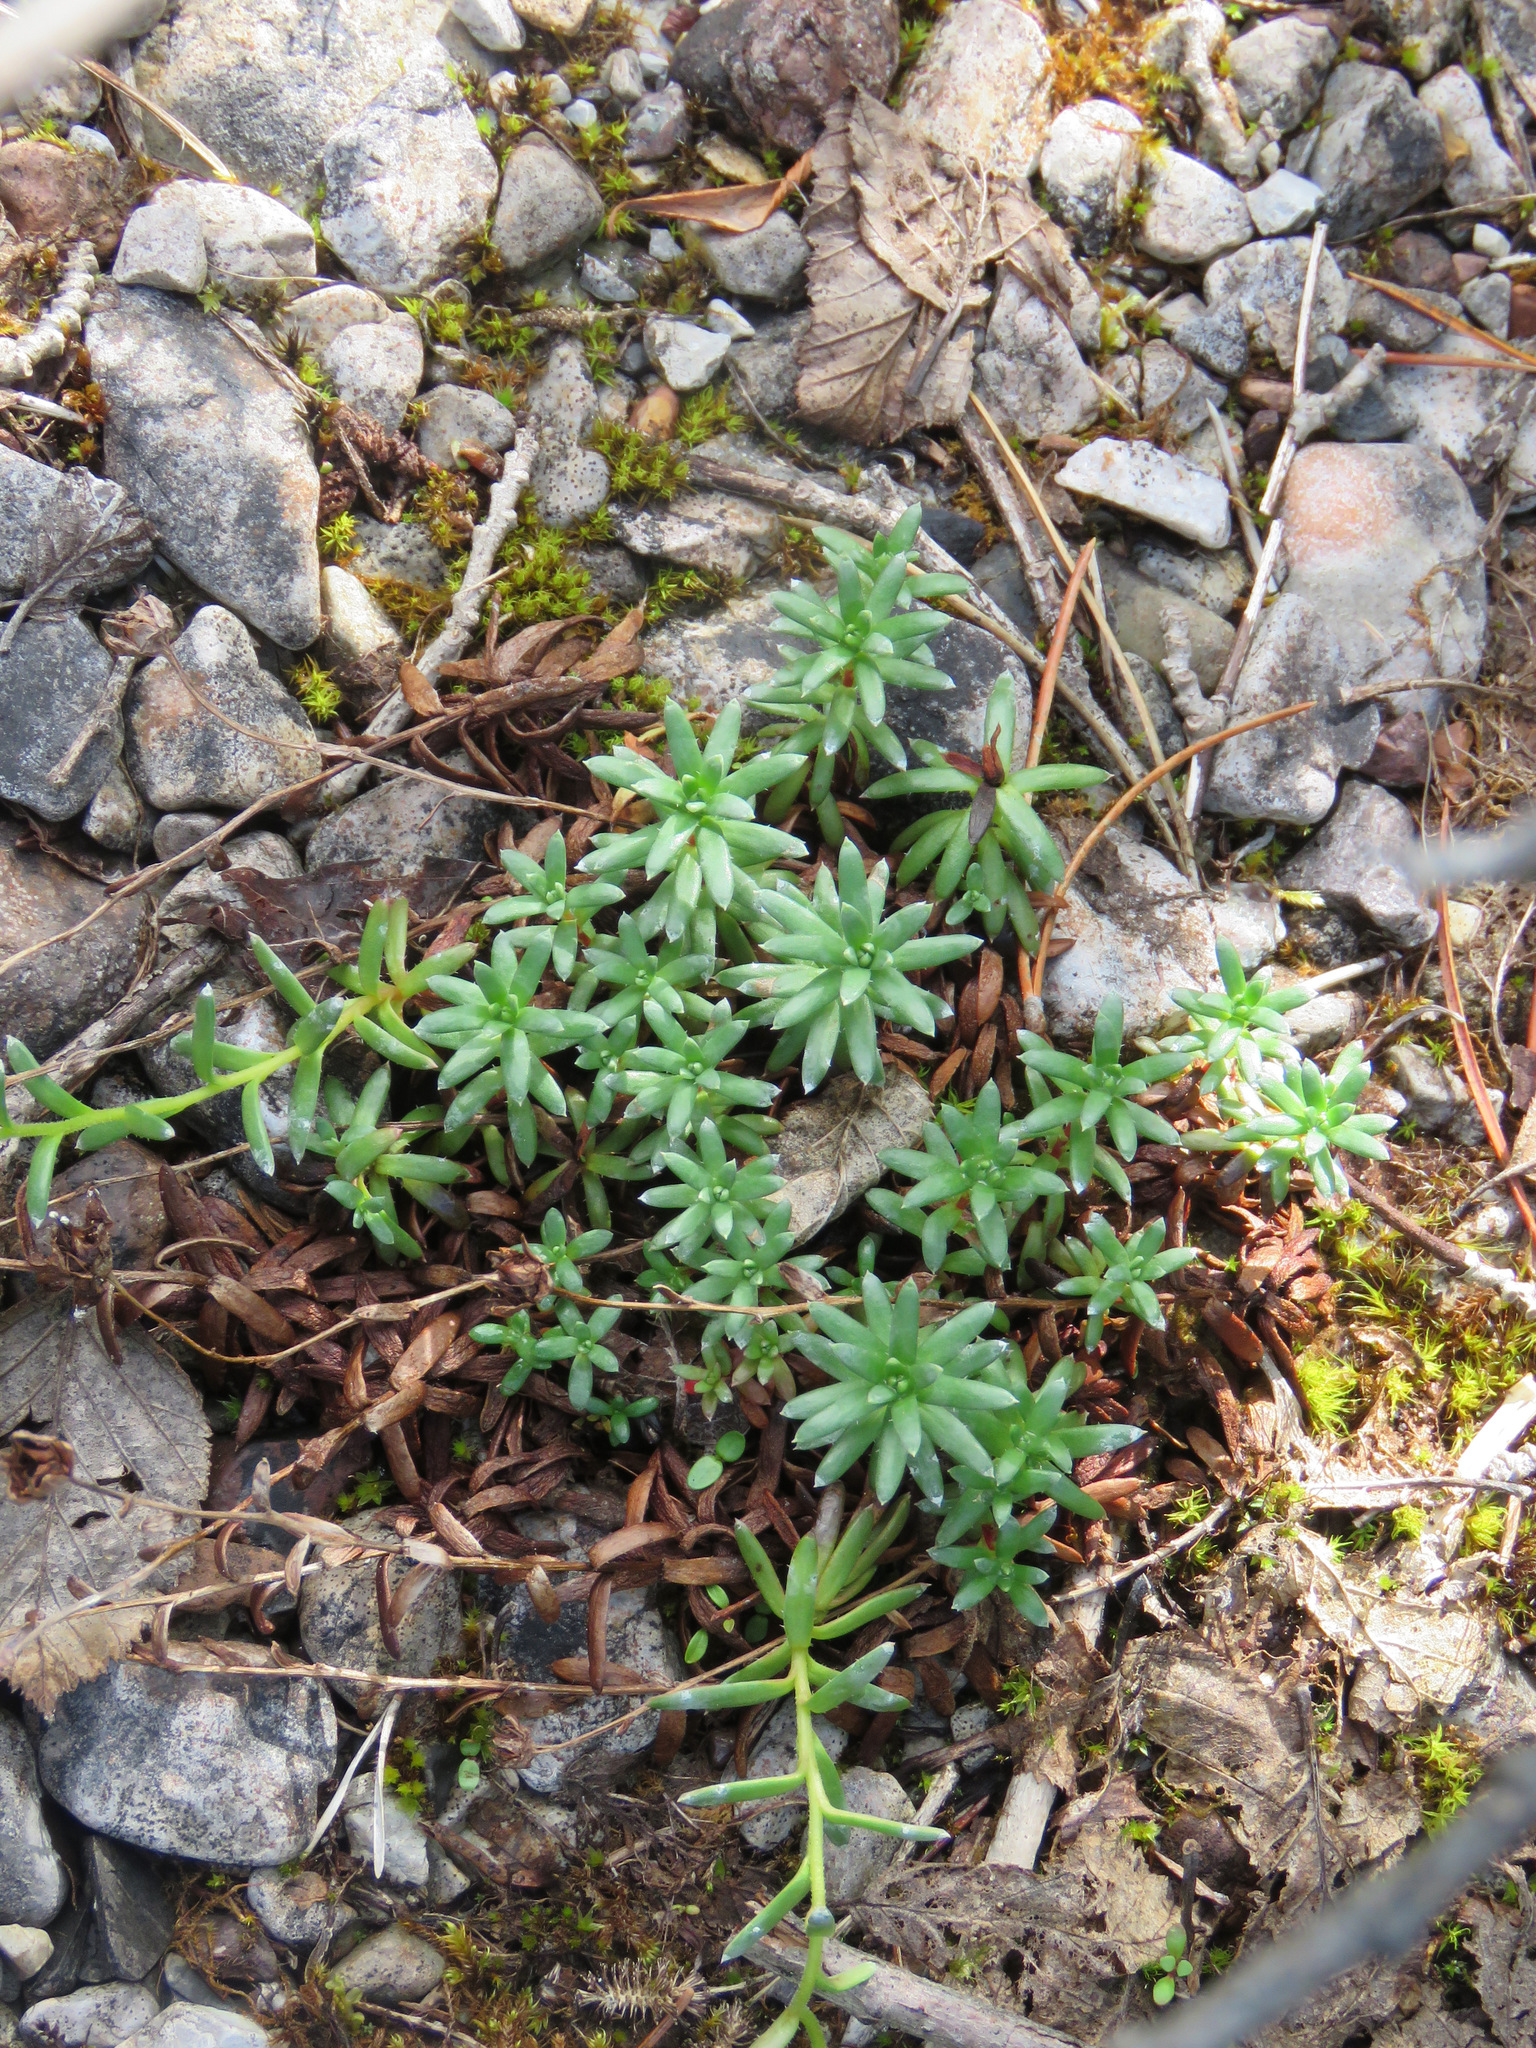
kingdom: Plantae
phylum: Tracheophyta
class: Magnoliopsida
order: Saxifragales
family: Saxifragaceae
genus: Saxifraga
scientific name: Saxifraga aizoides
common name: Yellow mountain saxifrage
